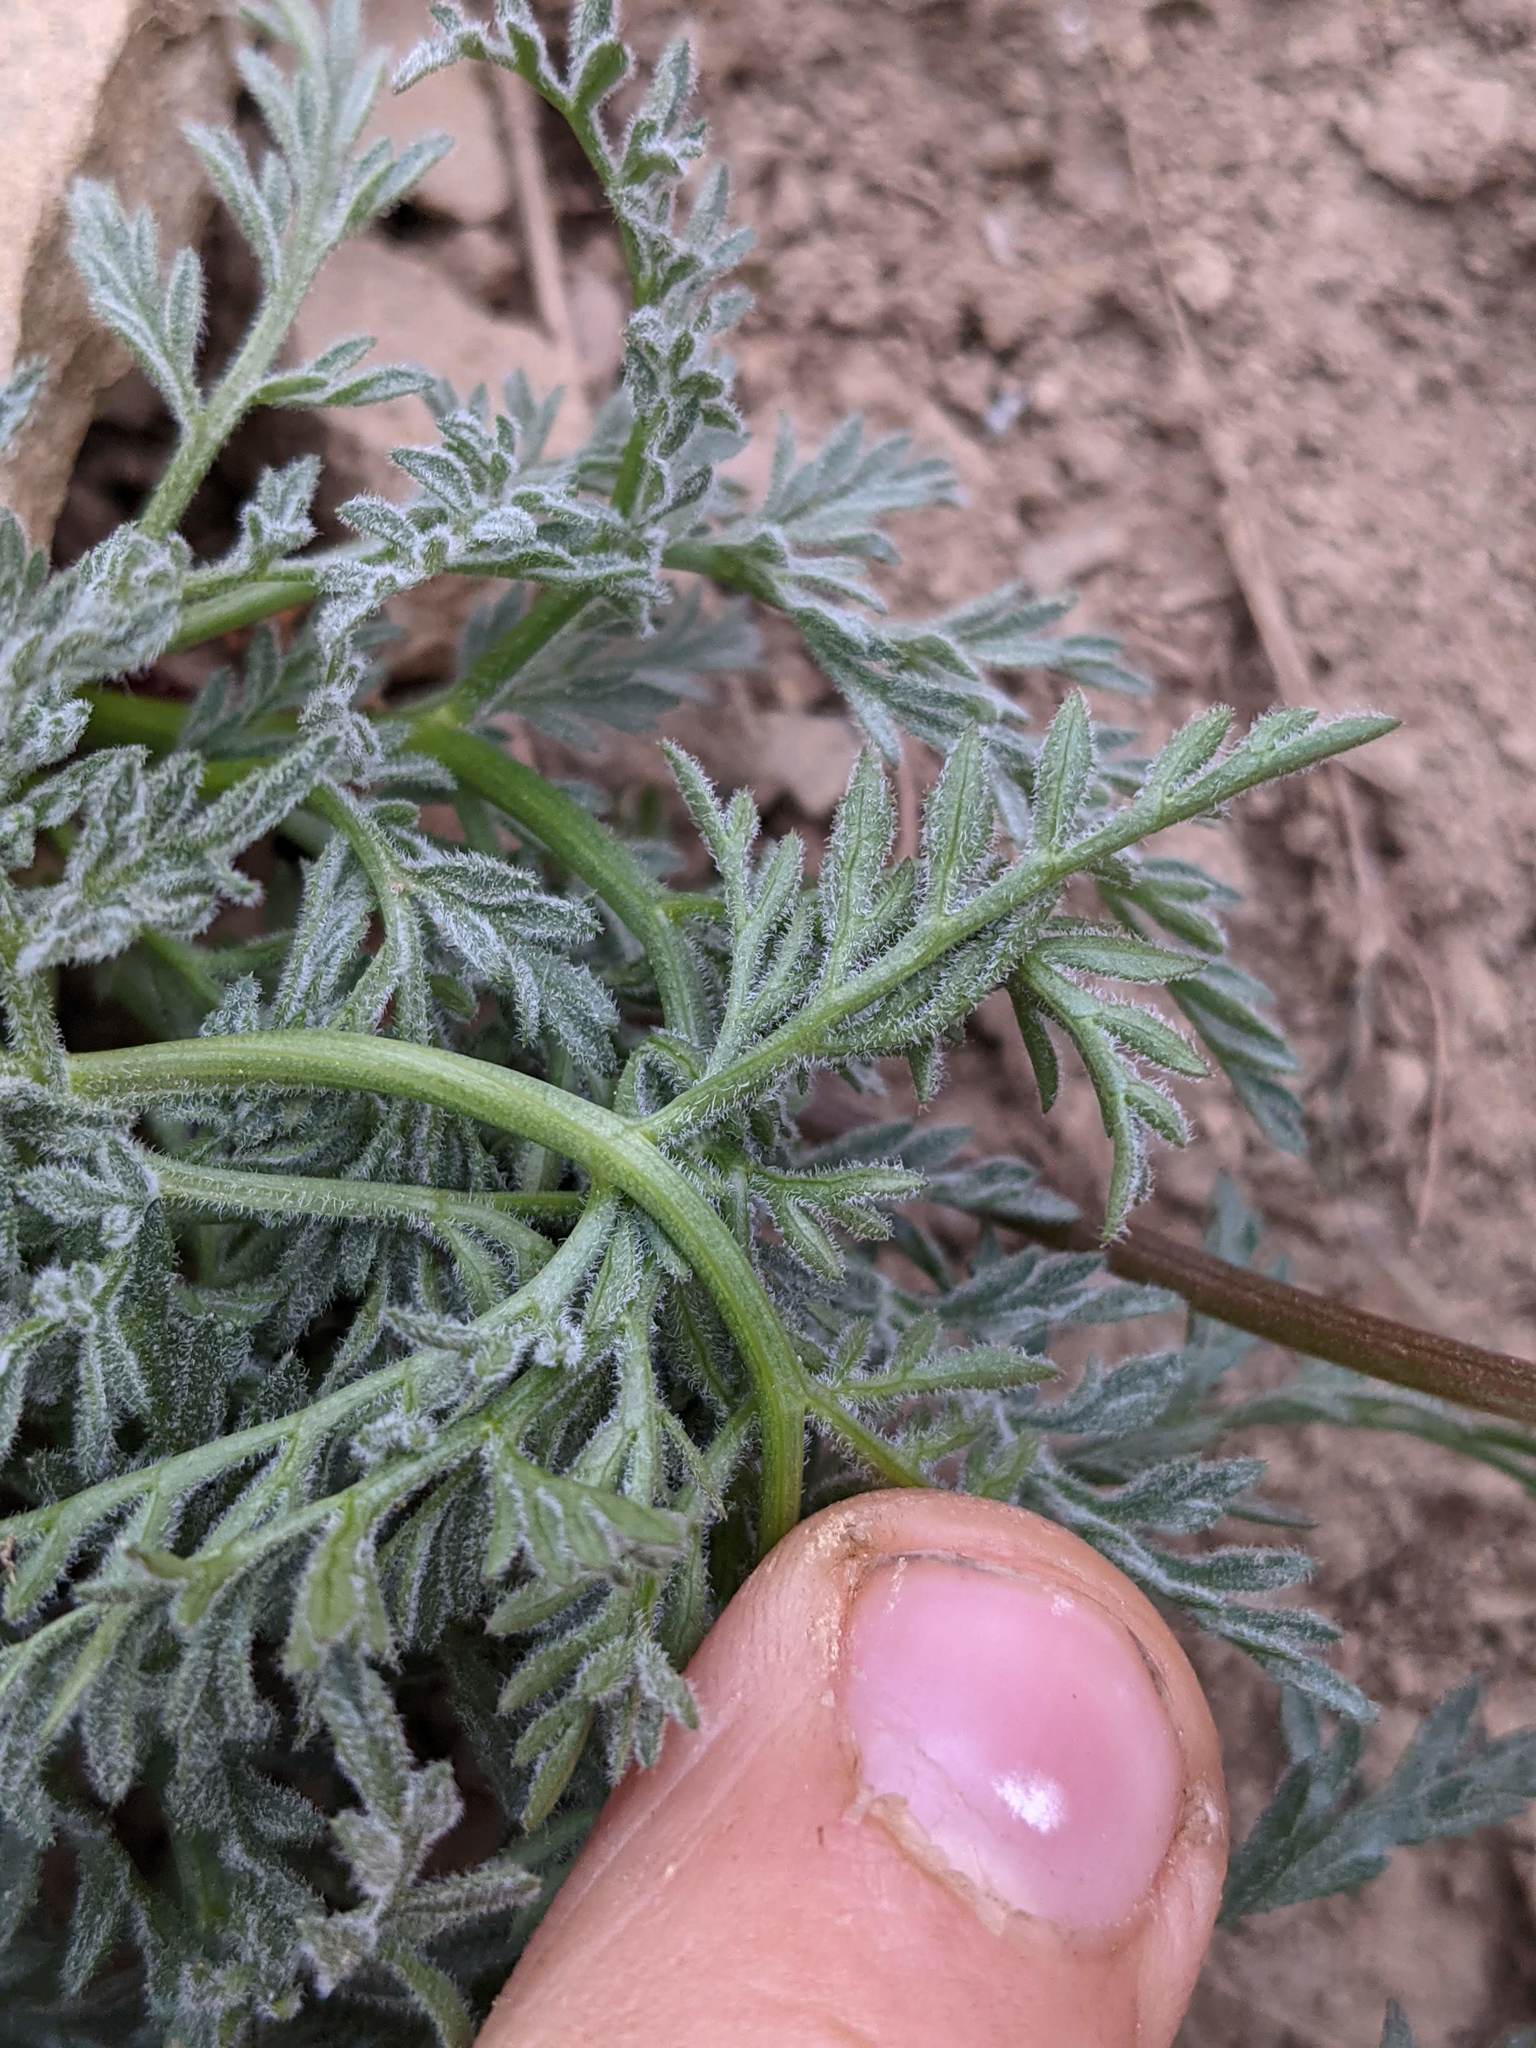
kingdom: Plantae
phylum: Tracheophyta
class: Magnoliopsida
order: Apiales
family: Apiaceae
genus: Lomatium
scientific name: Lomatium observatorium
